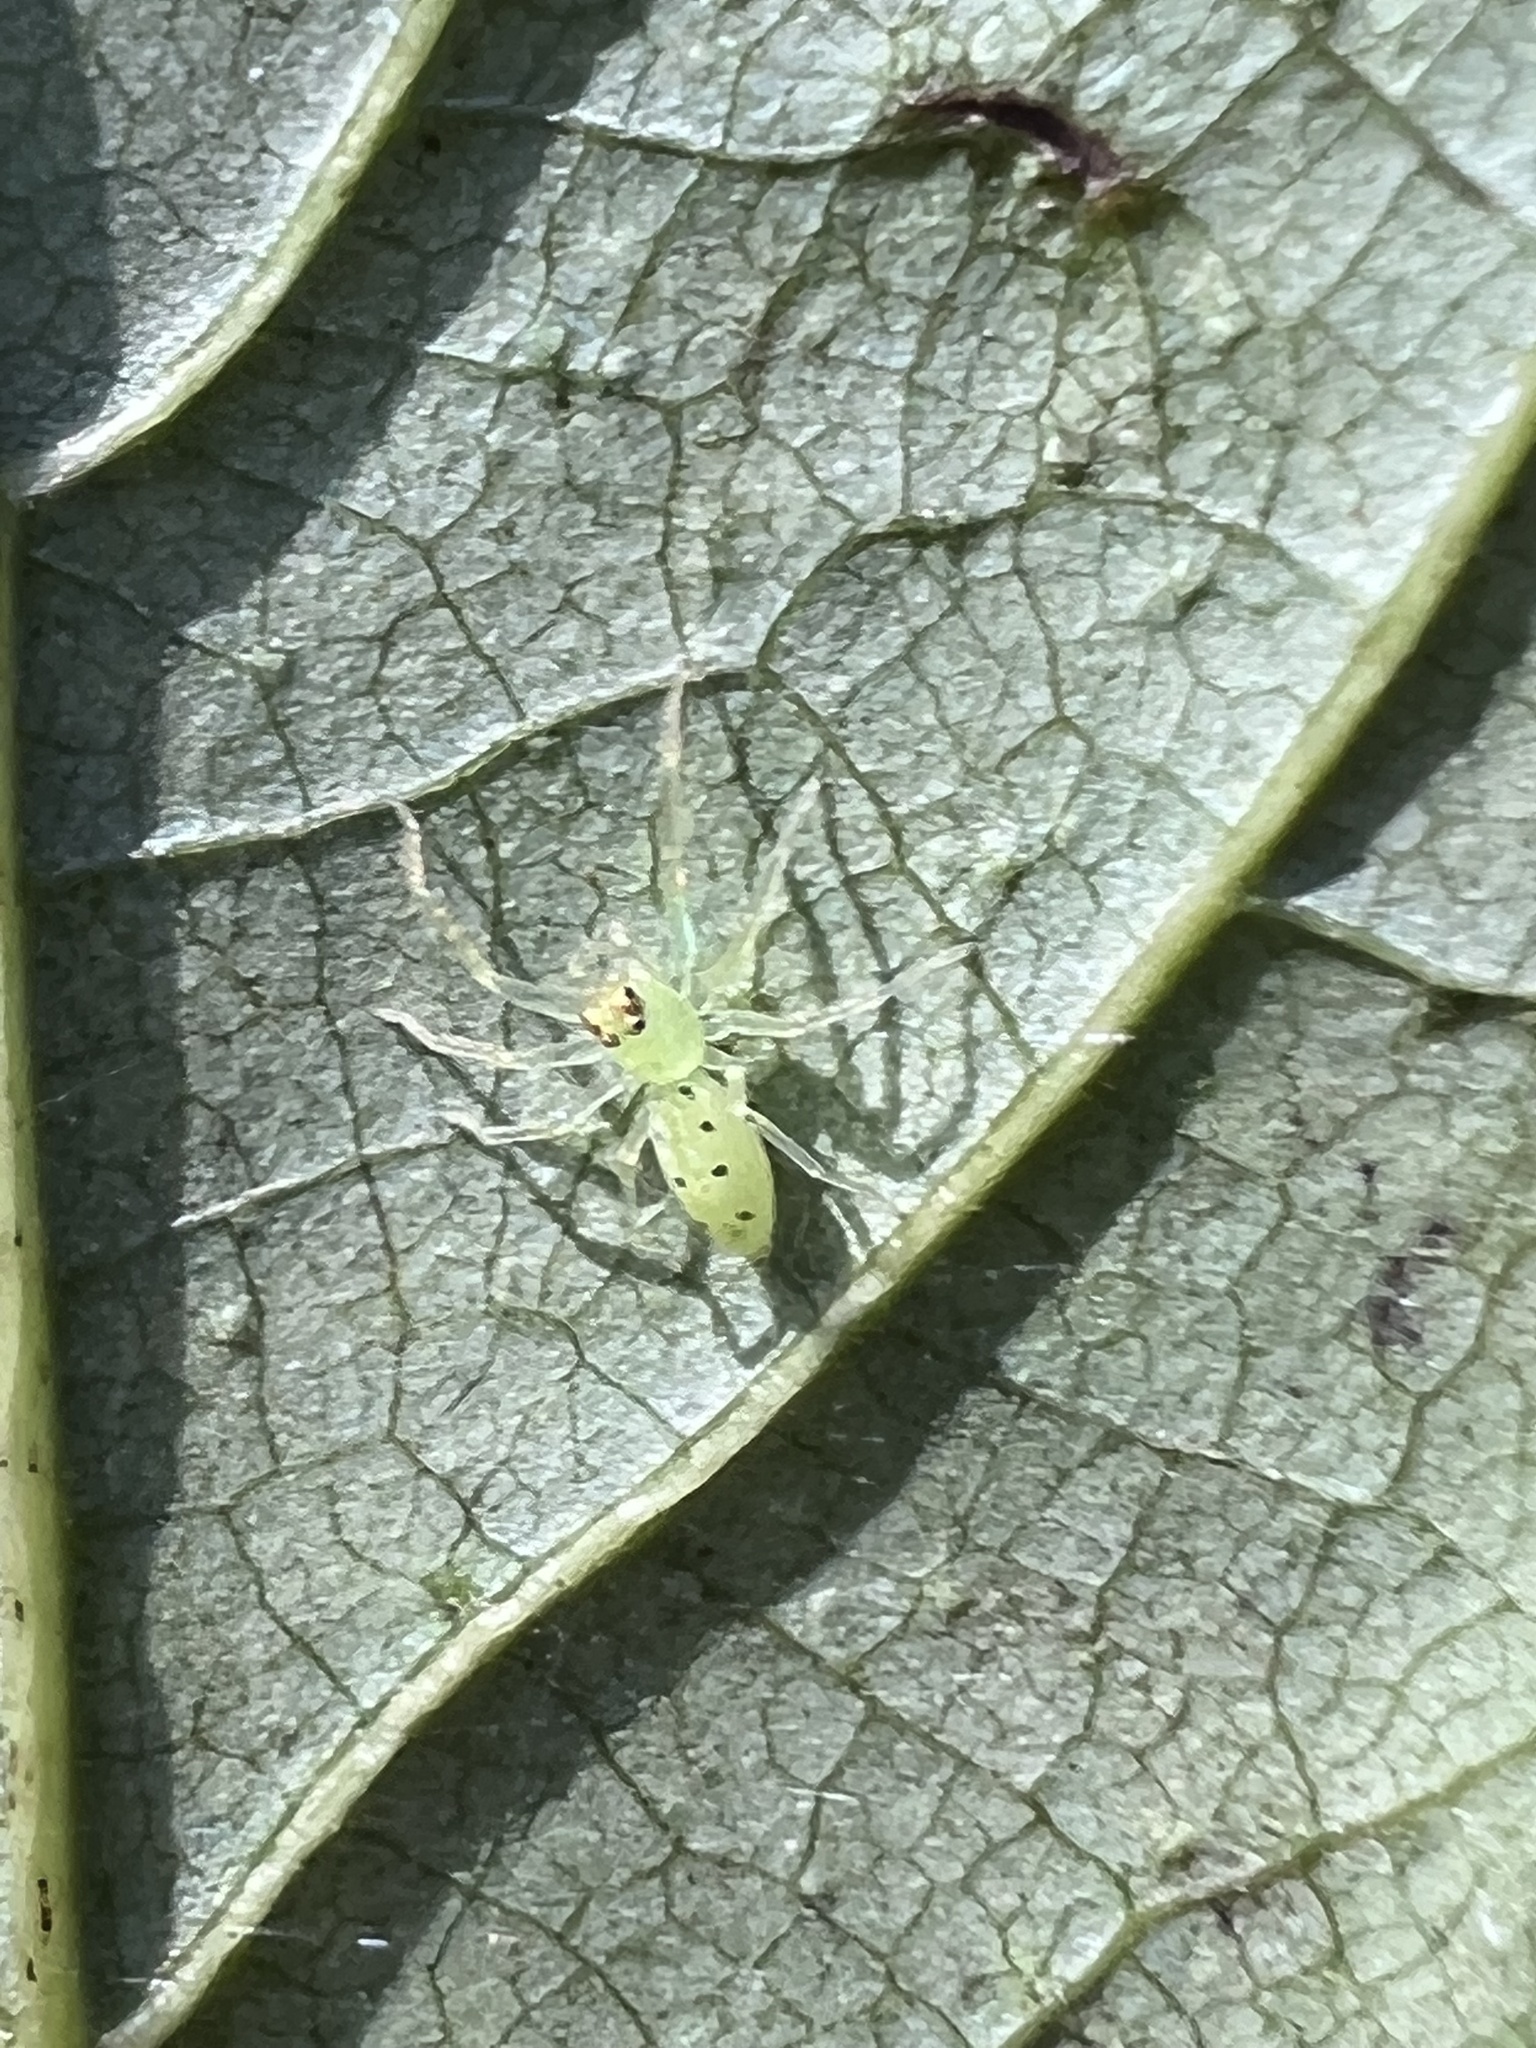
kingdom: Animalia
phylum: Arthropoda
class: Arachnida
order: Araneae
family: Salticidae
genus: Lyssomanes
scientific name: Lyssomanes viridis
